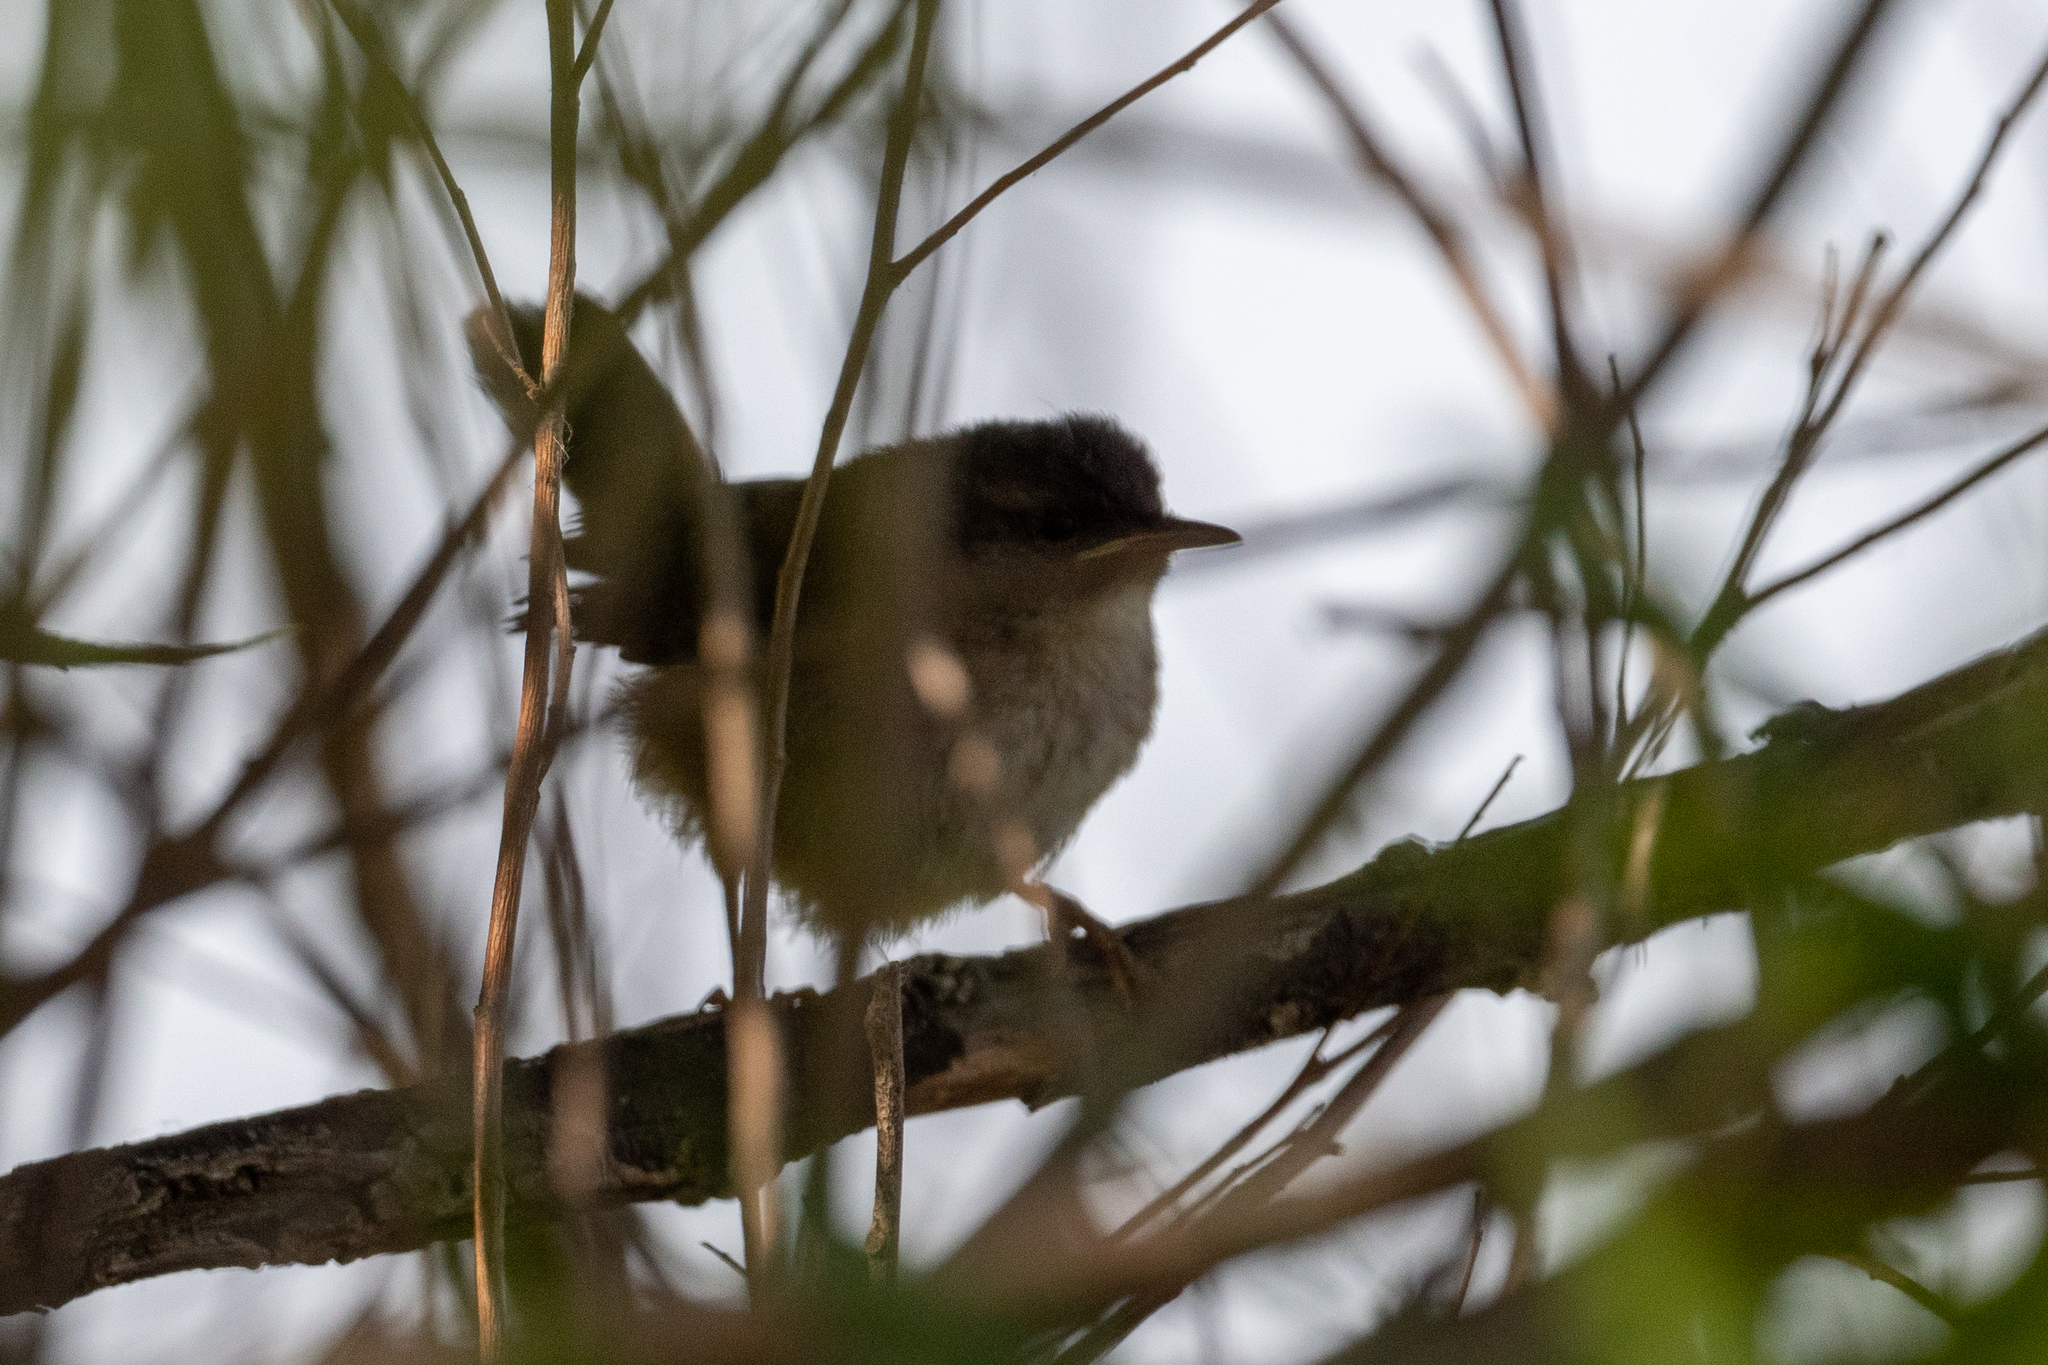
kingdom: Animalia
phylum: Chordata
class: Aves
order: Passeriformes
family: Troglodytidae
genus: Cistothorus
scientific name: Cistothorus palustris
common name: Marsh wren
